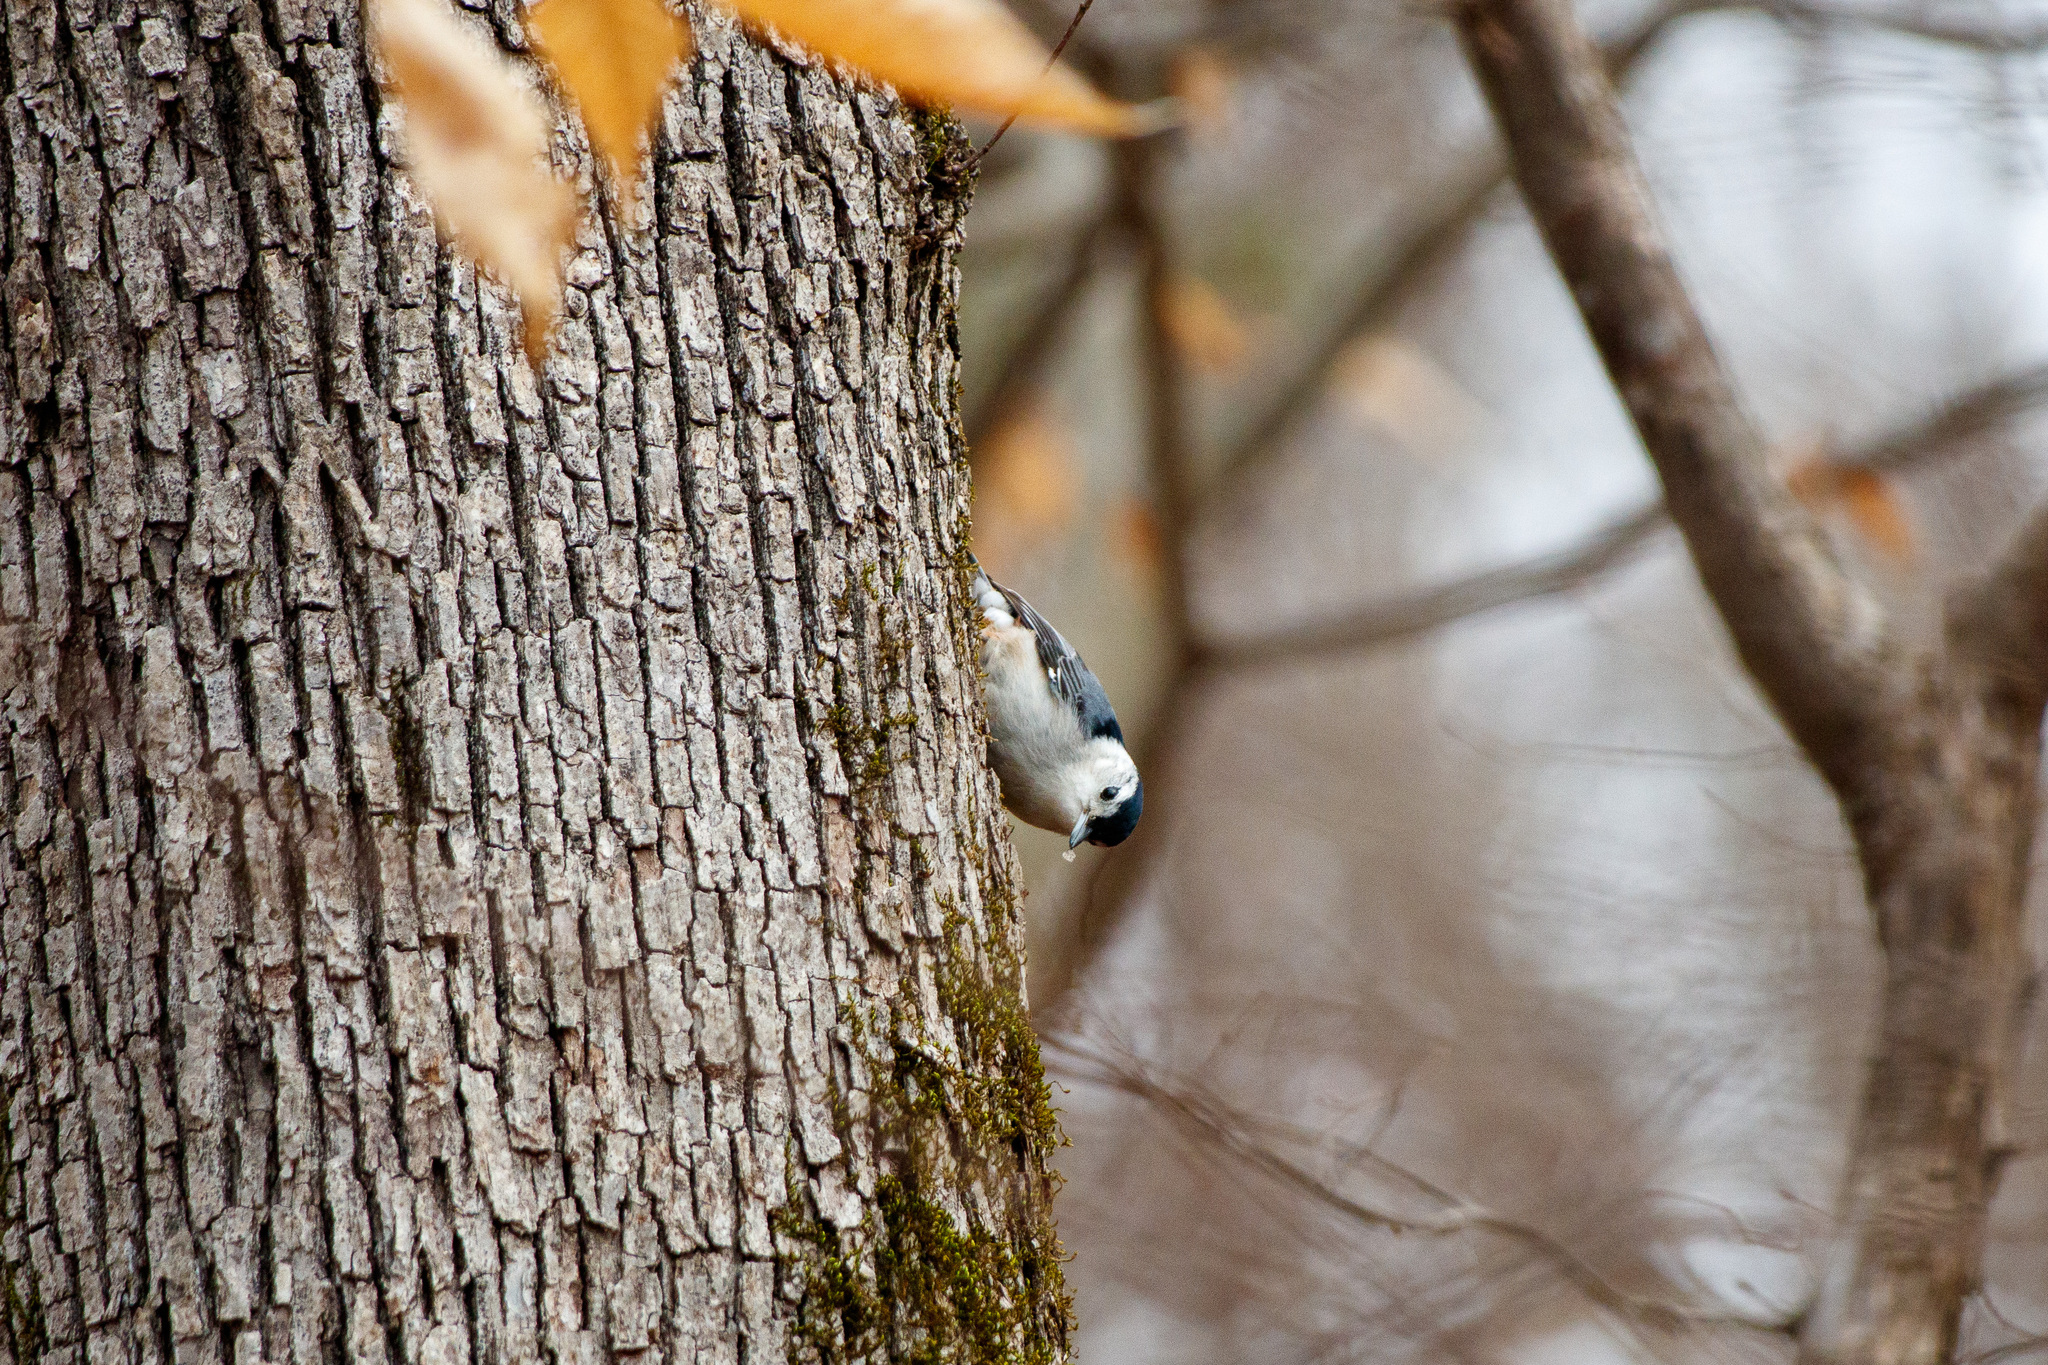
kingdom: Animalia
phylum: Chordata
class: Aves
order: Passeriformes
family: Sittidae
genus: Sitta
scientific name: Sitta carolinensis
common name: White-breasted nuthatch
